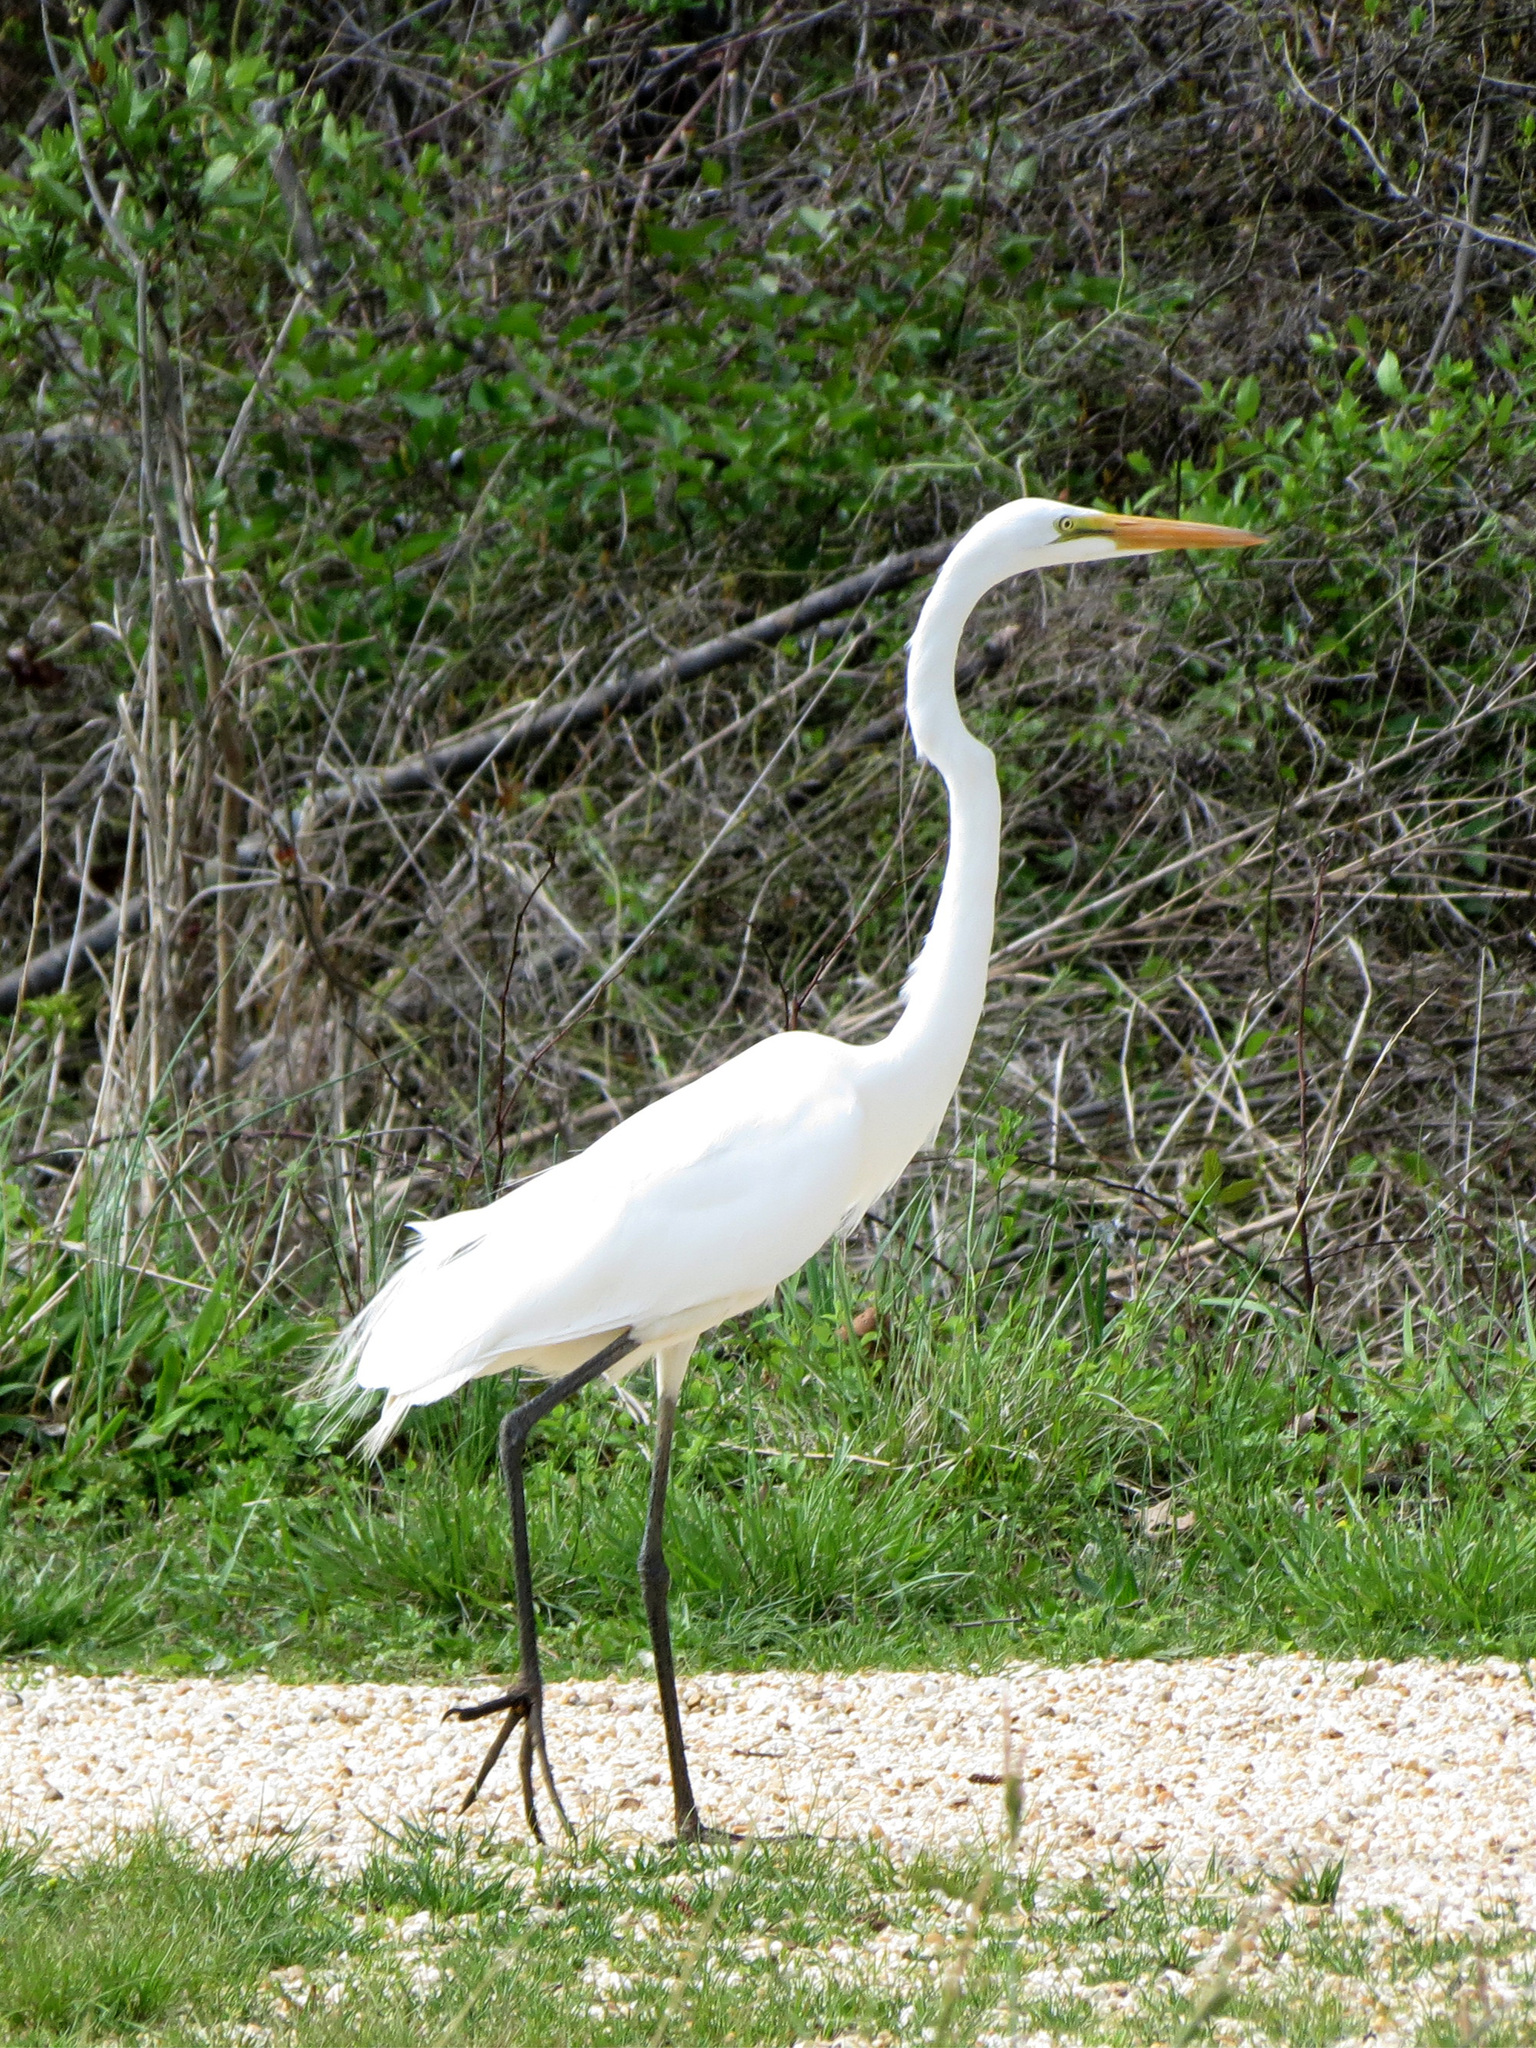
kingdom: Animalia
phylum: Chordata
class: Aves
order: Pelecaniformes
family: Ardeidae
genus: Ardea
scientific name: Ardea alba
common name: Great egret
